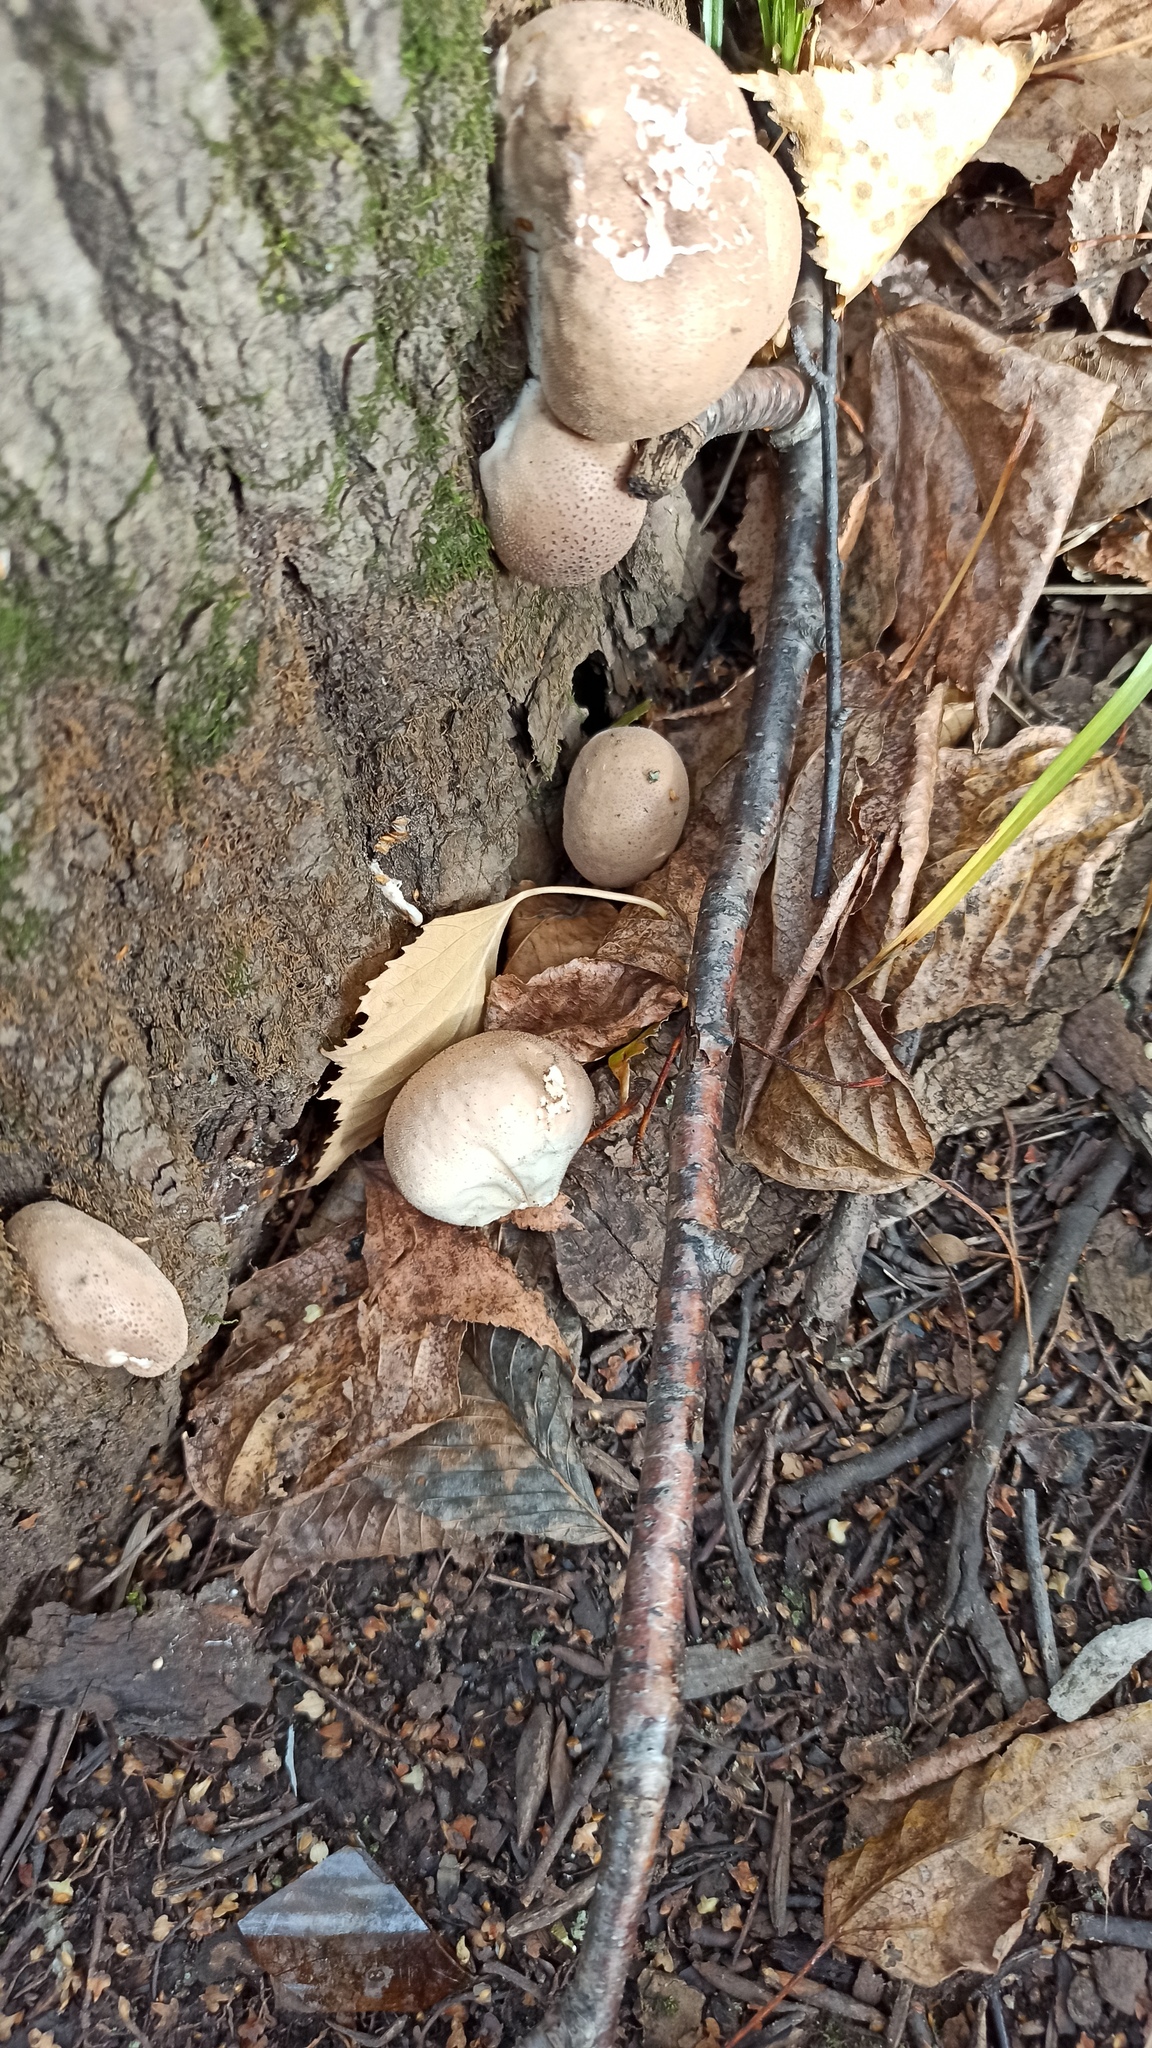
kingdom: Fungi
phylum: Basidiomycota
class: Agaricomycetes
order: Agaricales
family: Lycoperdaceae
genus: Apioperdon
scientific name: Apioperdon pyriforme
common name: Pear-shaped puffball
